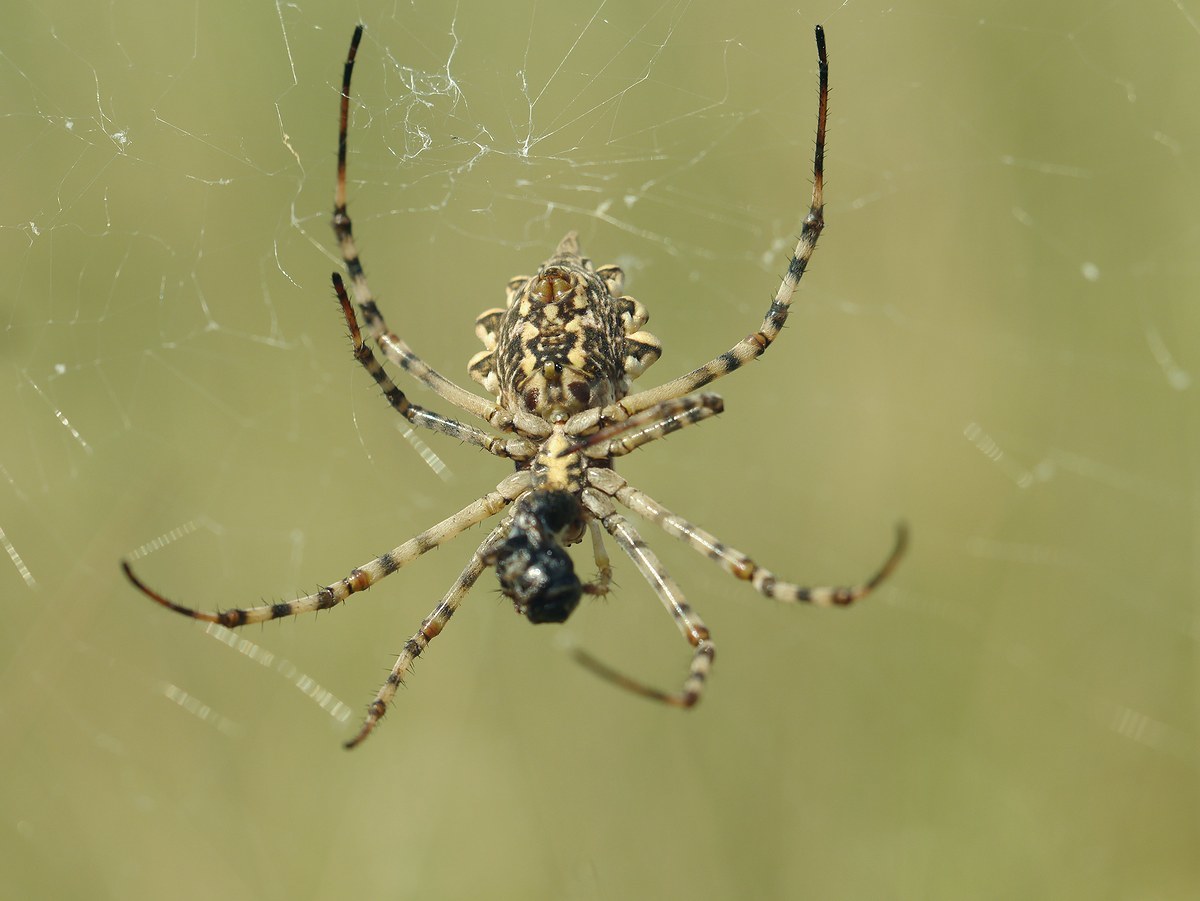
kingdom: Animalia
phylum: Arthropoda
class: Arachnida
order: Araneae
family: Araneidae
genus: Argiope
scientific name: Argiope lobata
